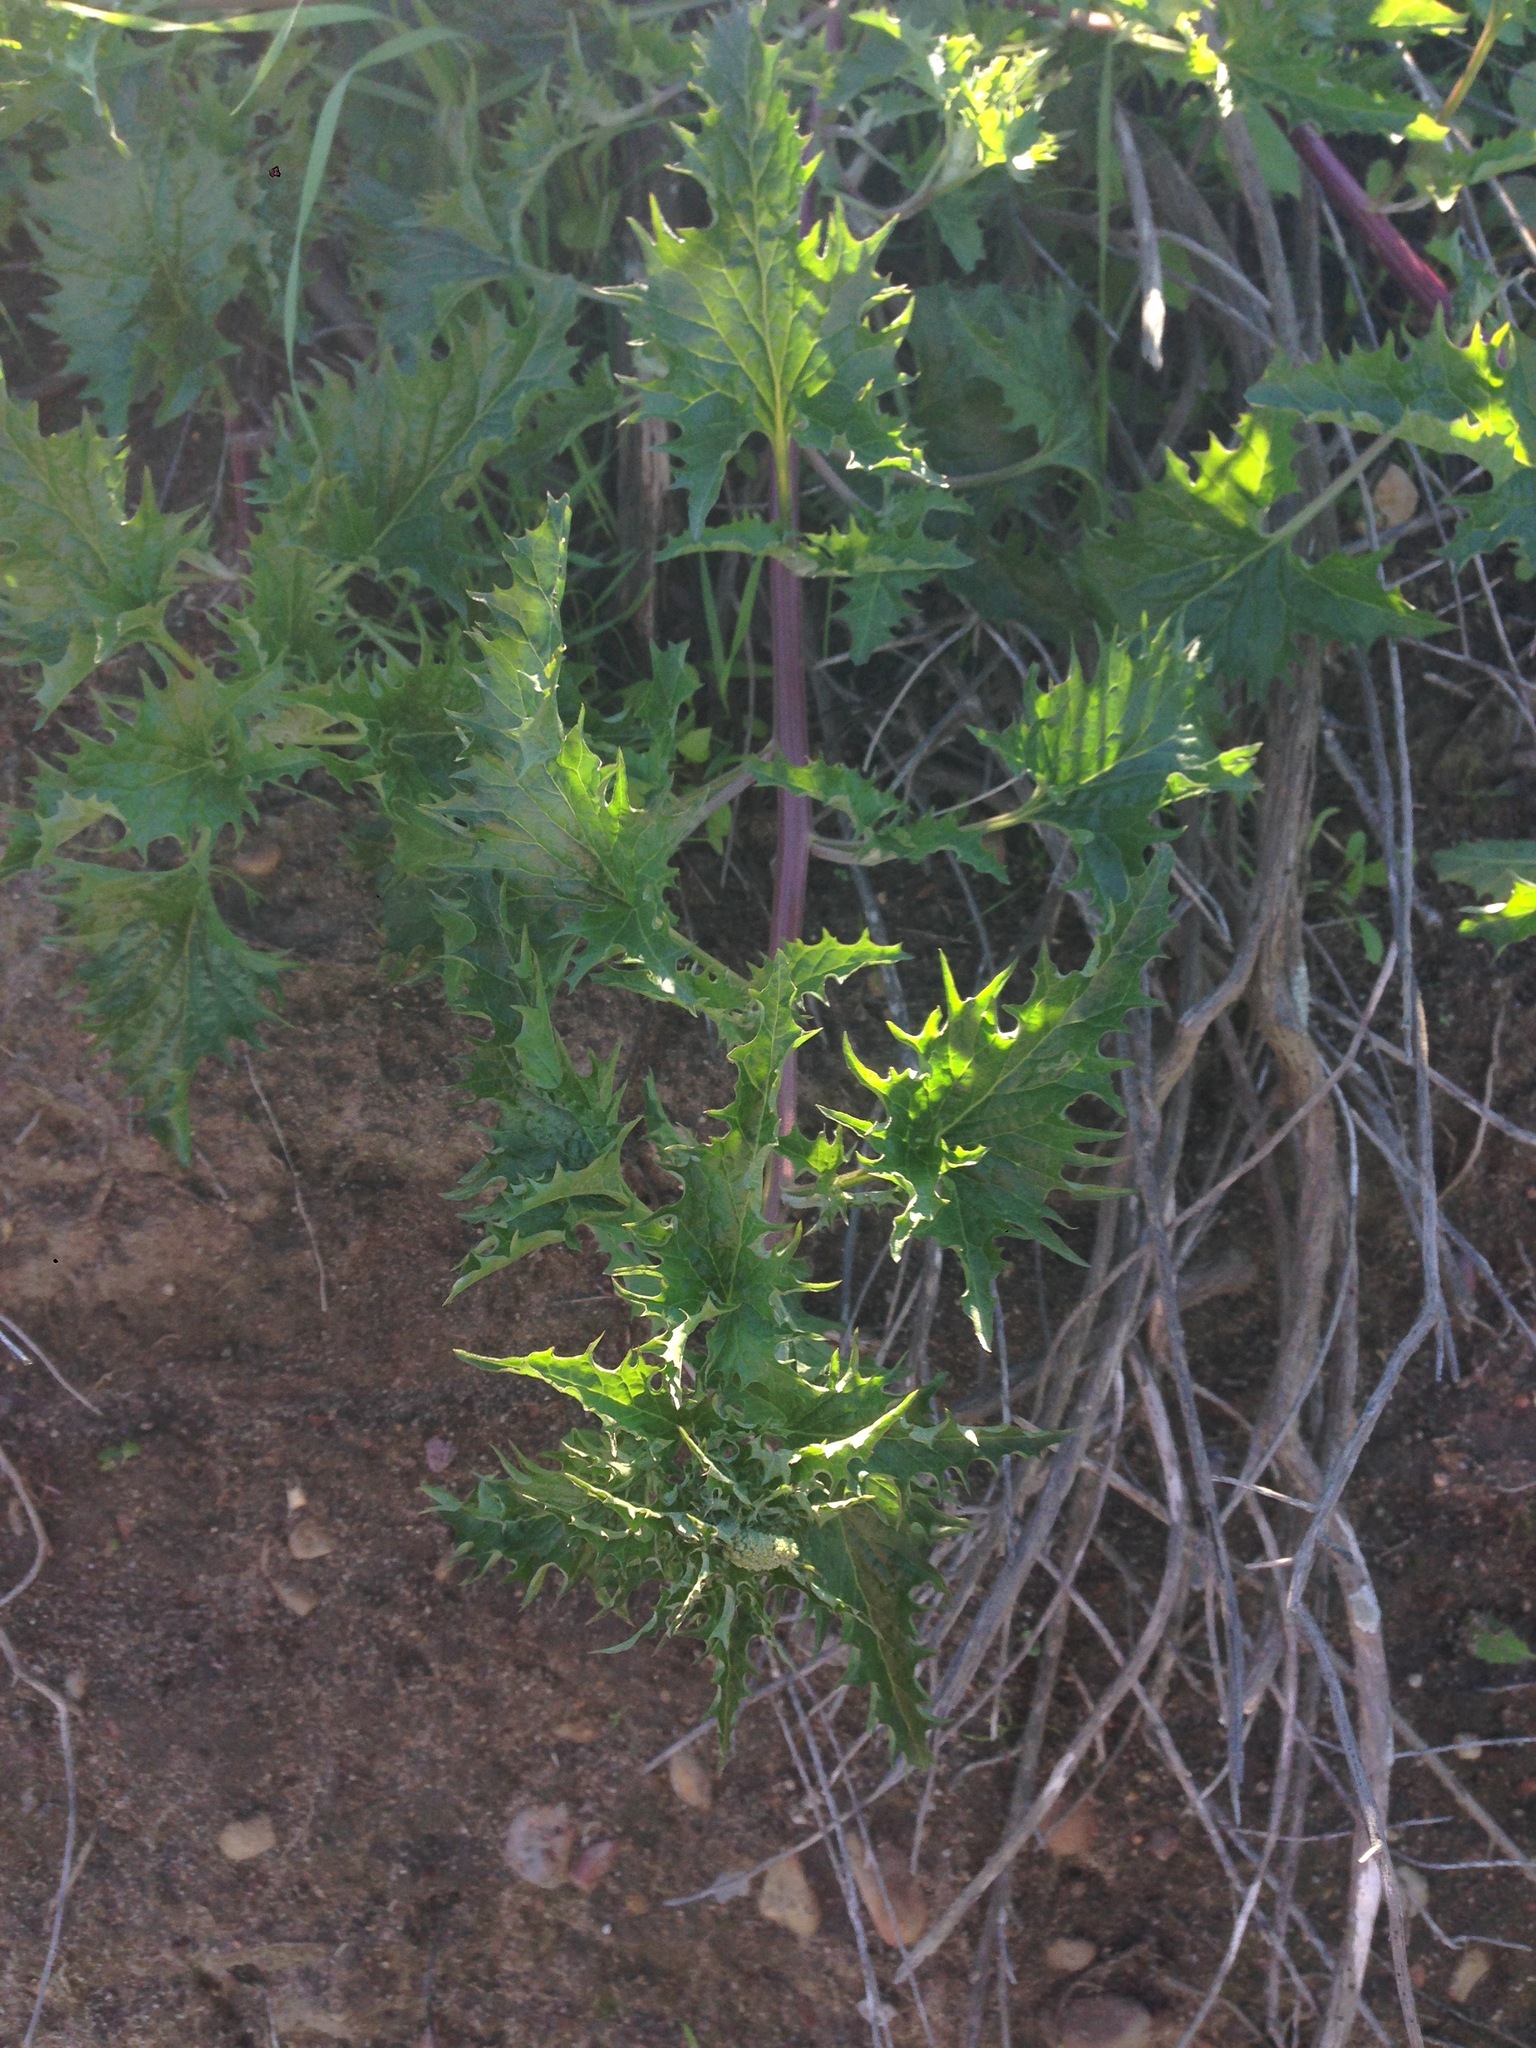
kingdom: Plantae
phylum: Tracheophyta
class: Magnoliopsida
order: Caryophyllales
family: Amaranthaceae
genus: Blitum
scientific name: Blitum californicum
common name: California goosefoot
